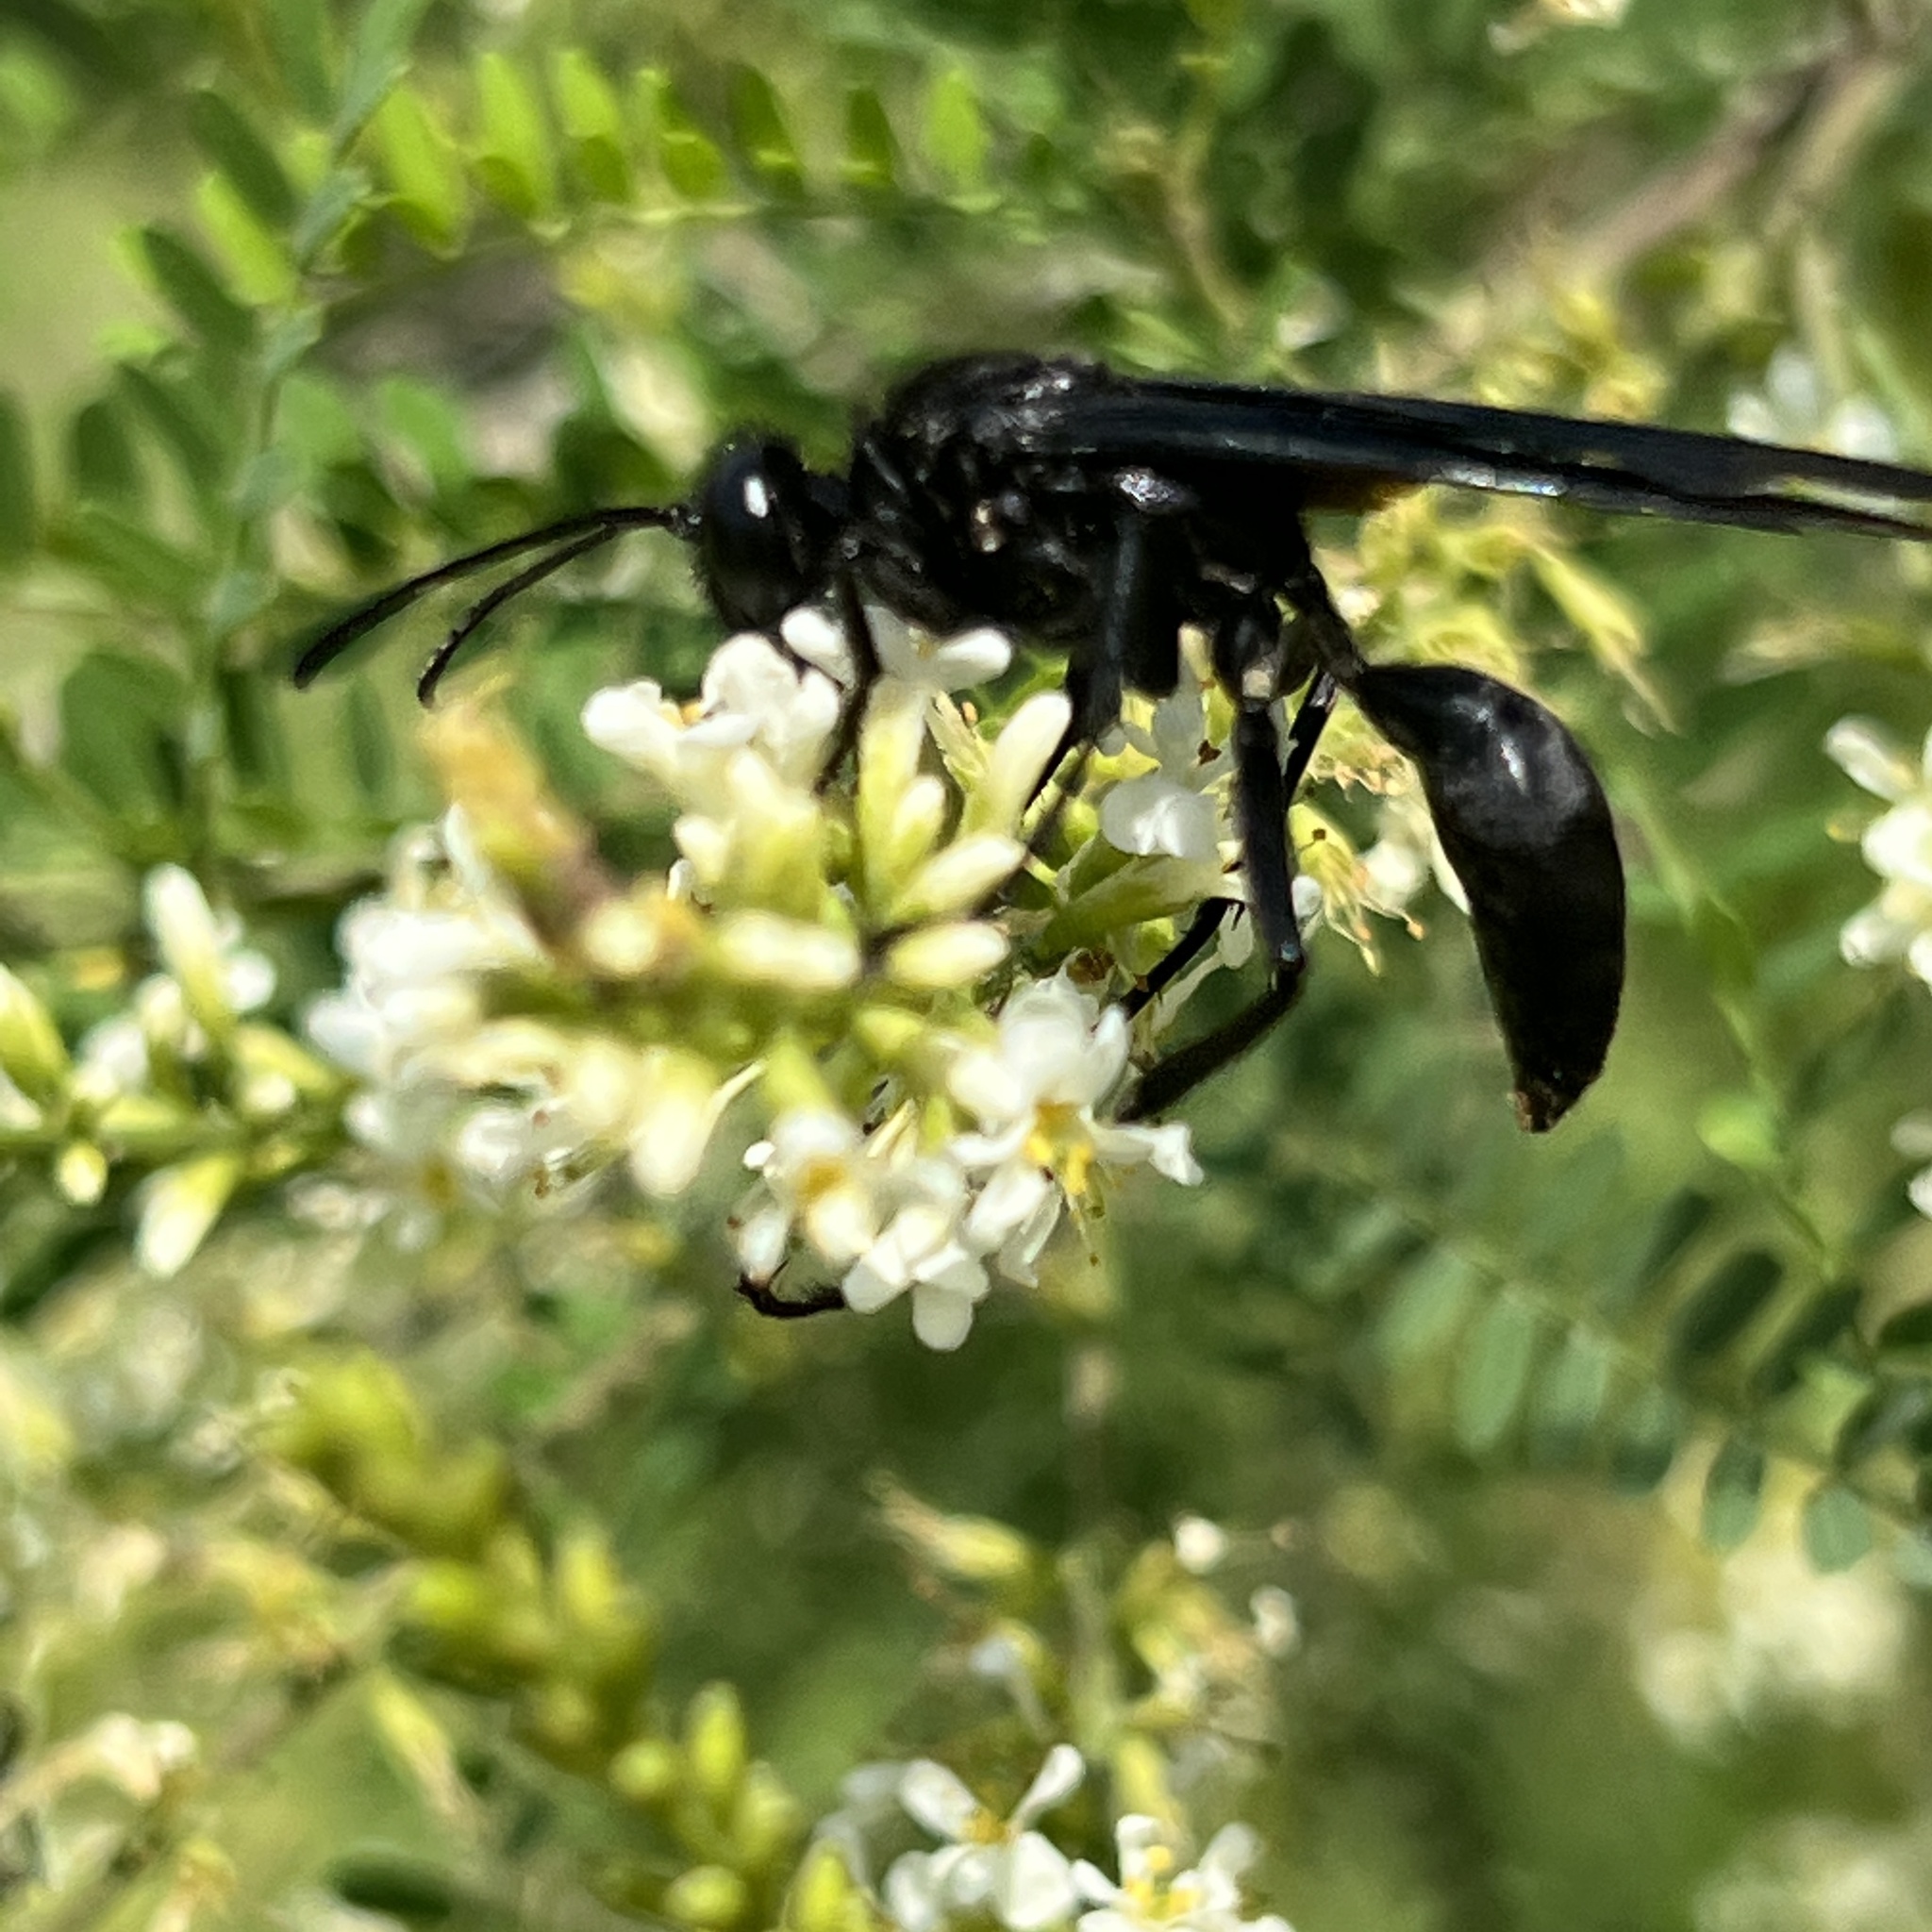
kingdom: Animalia
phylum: Arthropoda
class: Insecta
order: Hymenoptera
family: Sphecidae
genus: Sphex
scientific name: Sphex pensylvanicus
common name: Great black digger wasp
